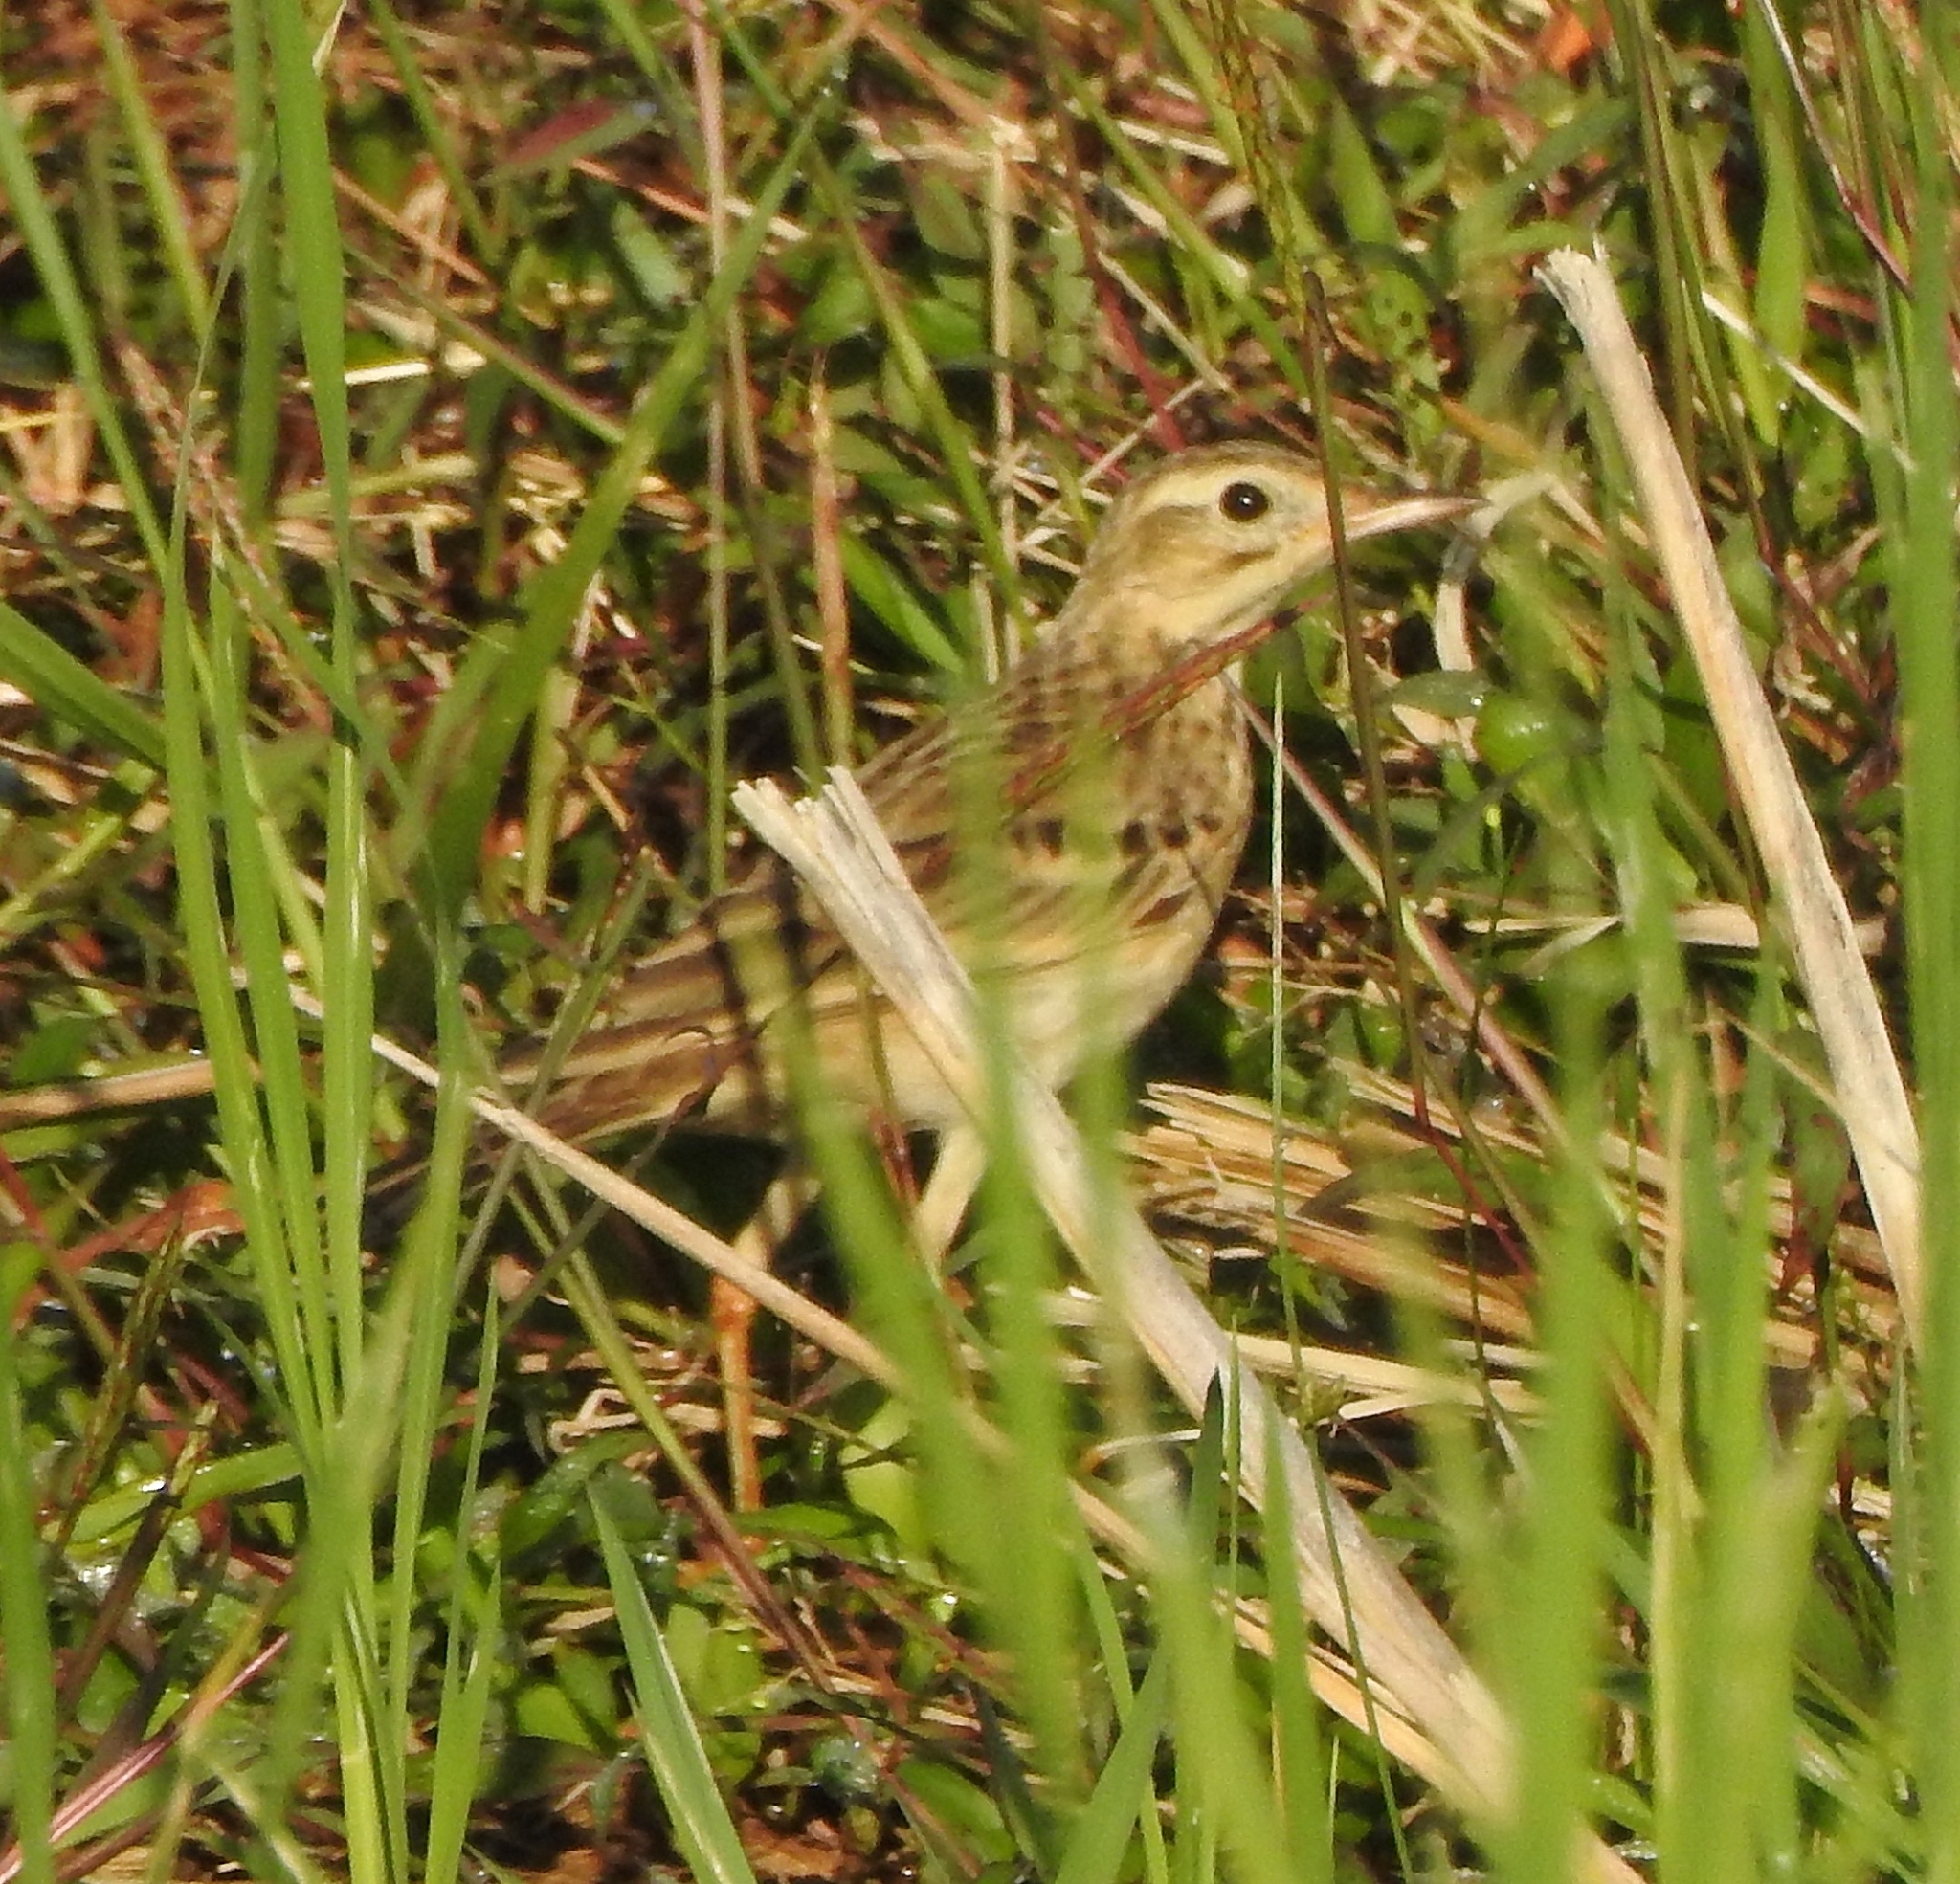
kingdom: Animalia
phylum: Chordata
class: Aves
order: Passeriformes
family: Motacillidae
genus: Anthus
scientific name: Anthus richardi
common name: Richard's pipit
